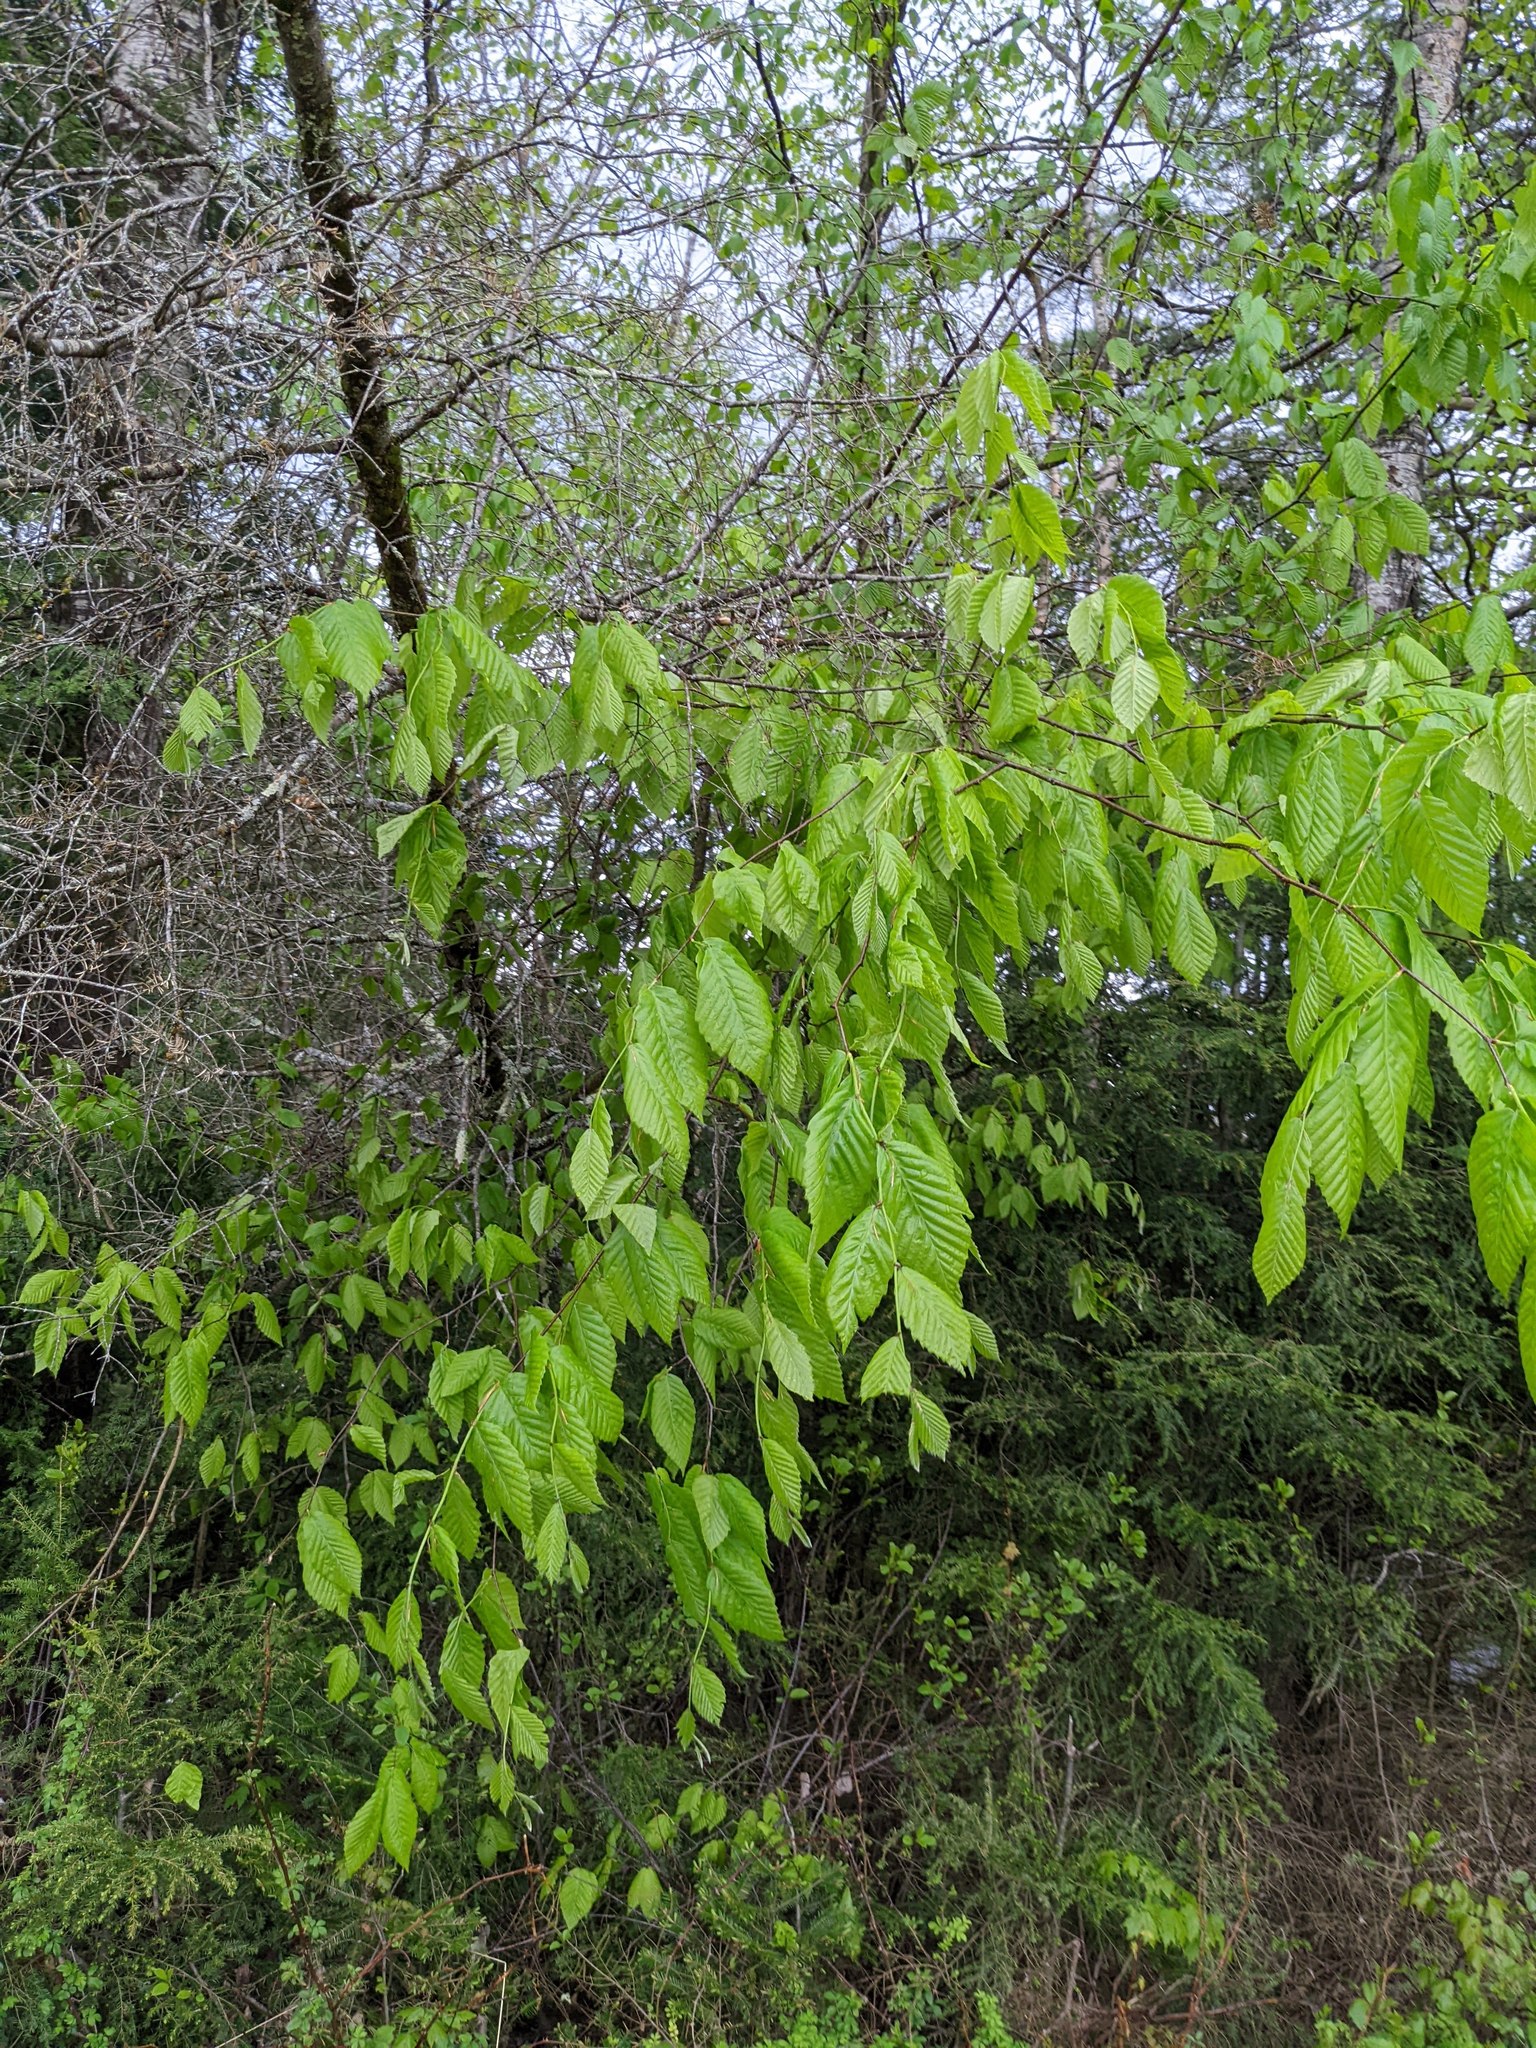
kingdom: Plantae
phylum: Tracheophyta
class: Magnoliopsida
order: Fagales
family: Fagaceae
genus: Fagus
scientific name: Fagus grandifolia
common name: American beech
